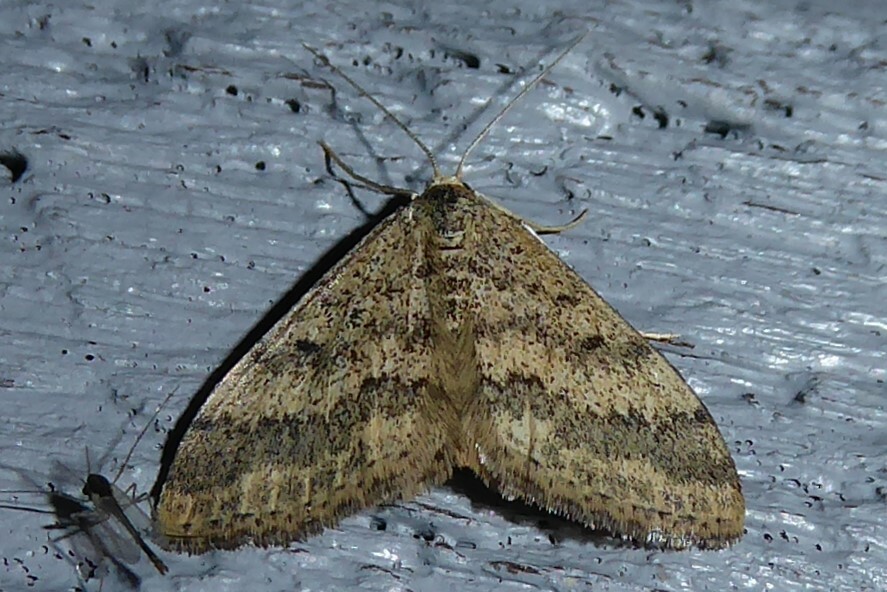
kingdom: Animalia
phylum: Arthropoda
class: Insecta
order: Lepidoptera
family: Geometridae
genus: Scopula
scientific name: Scopula rubraria
